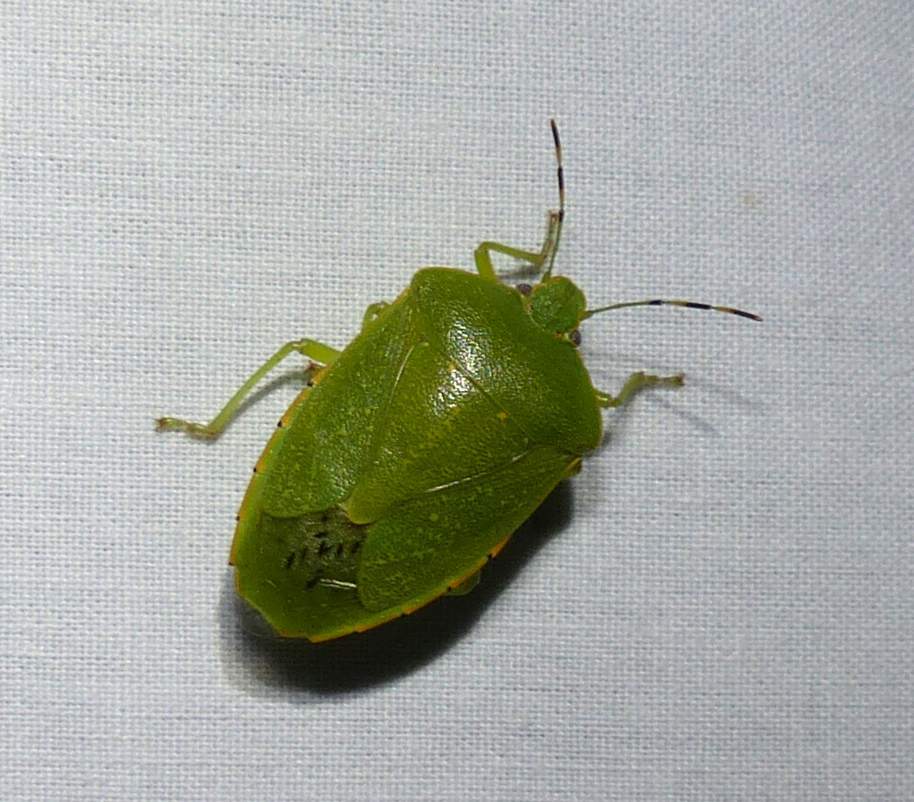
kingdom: Animalia
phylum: Arthropoda
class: Insecta
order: Hemiptera
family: Pentatomidae
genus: Chinavia
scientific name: Chinavia hilaris
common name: Green stink bug
